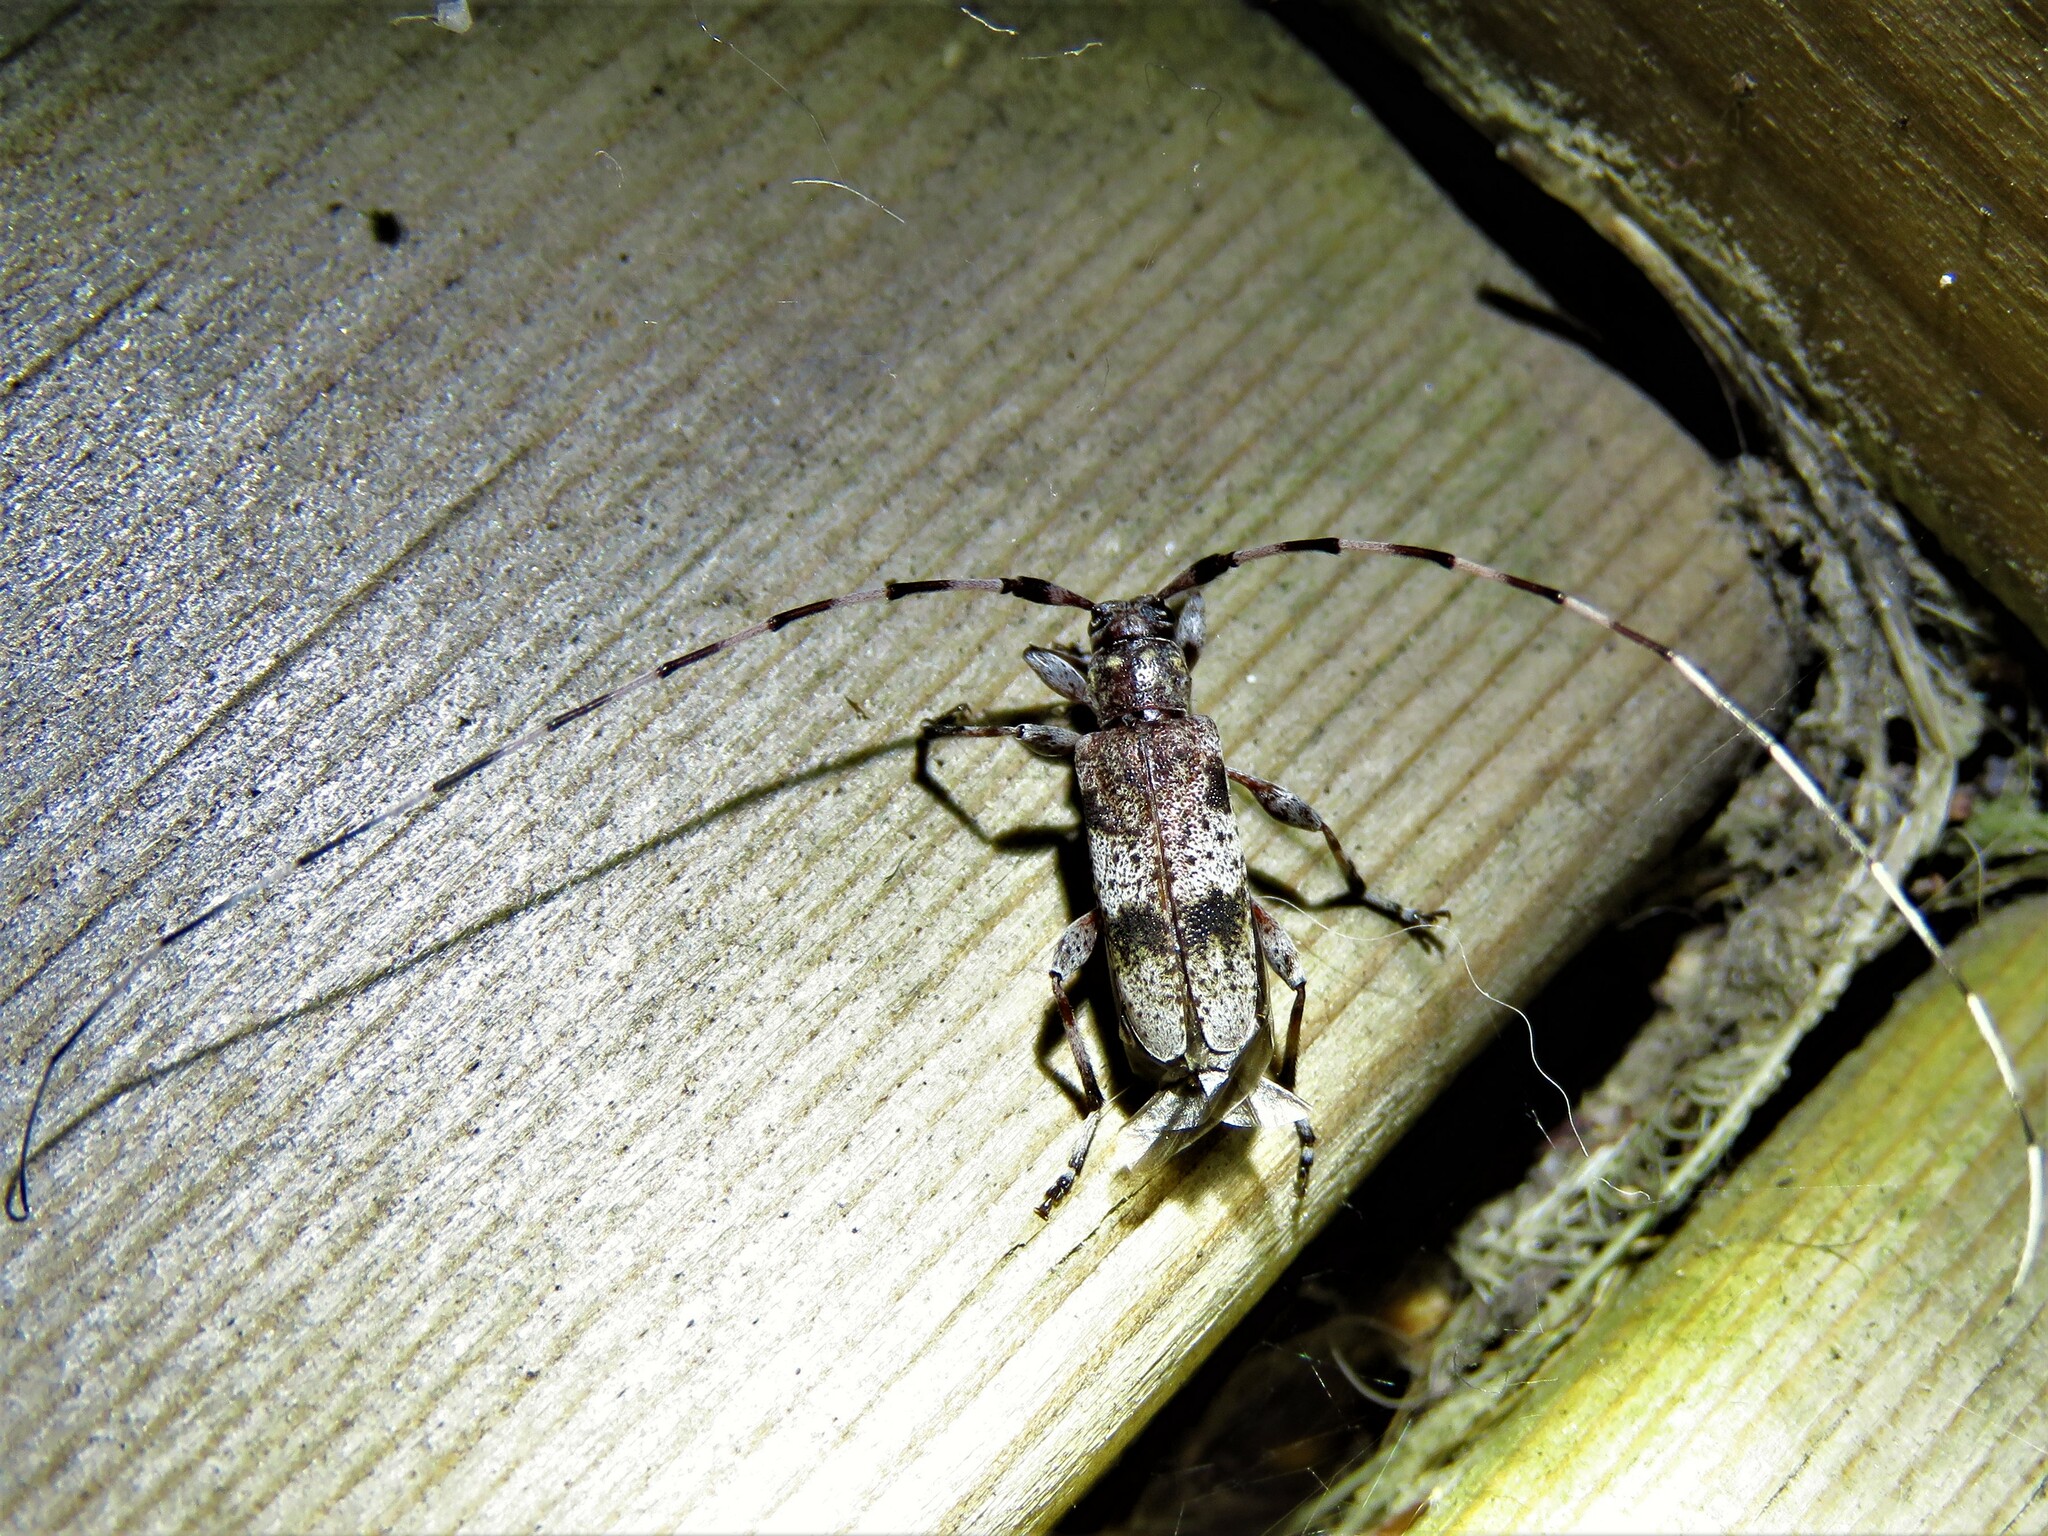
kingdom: Animalia
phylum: Arthropoda
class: Insecta
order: Coleoptera
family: Cerambycidae
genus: Acanthocinus
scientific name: Acanthocinus griseus
